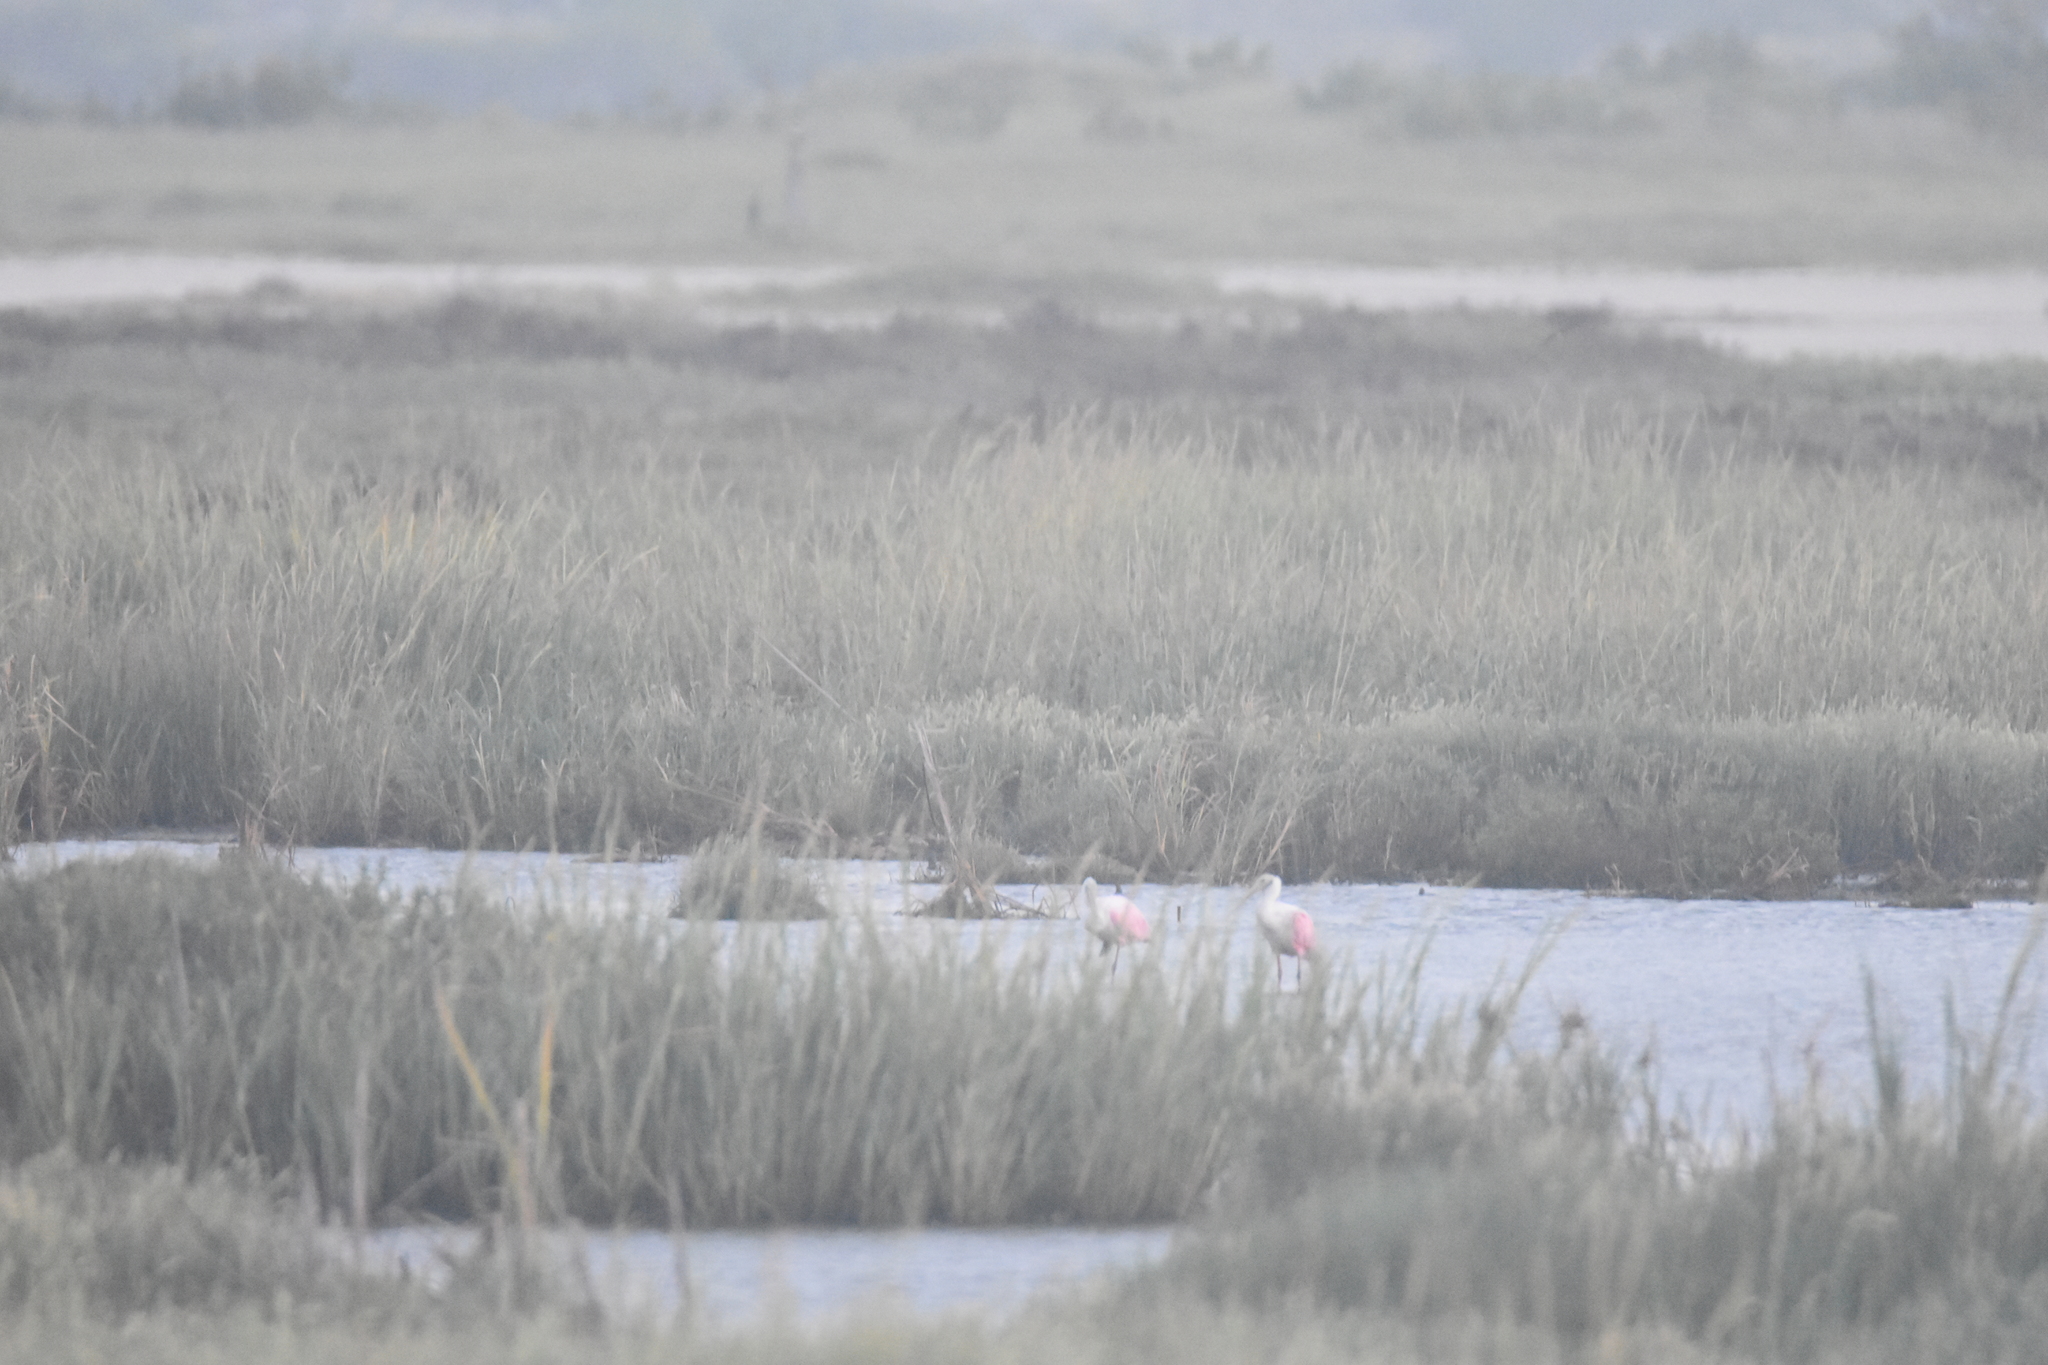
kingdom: Animalia
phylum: Chordata
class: Aves
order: Pelecaniformes
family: Threskiornithidae
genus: Platalea
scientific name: Platalea ajaja
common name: Roseate spoonbill
